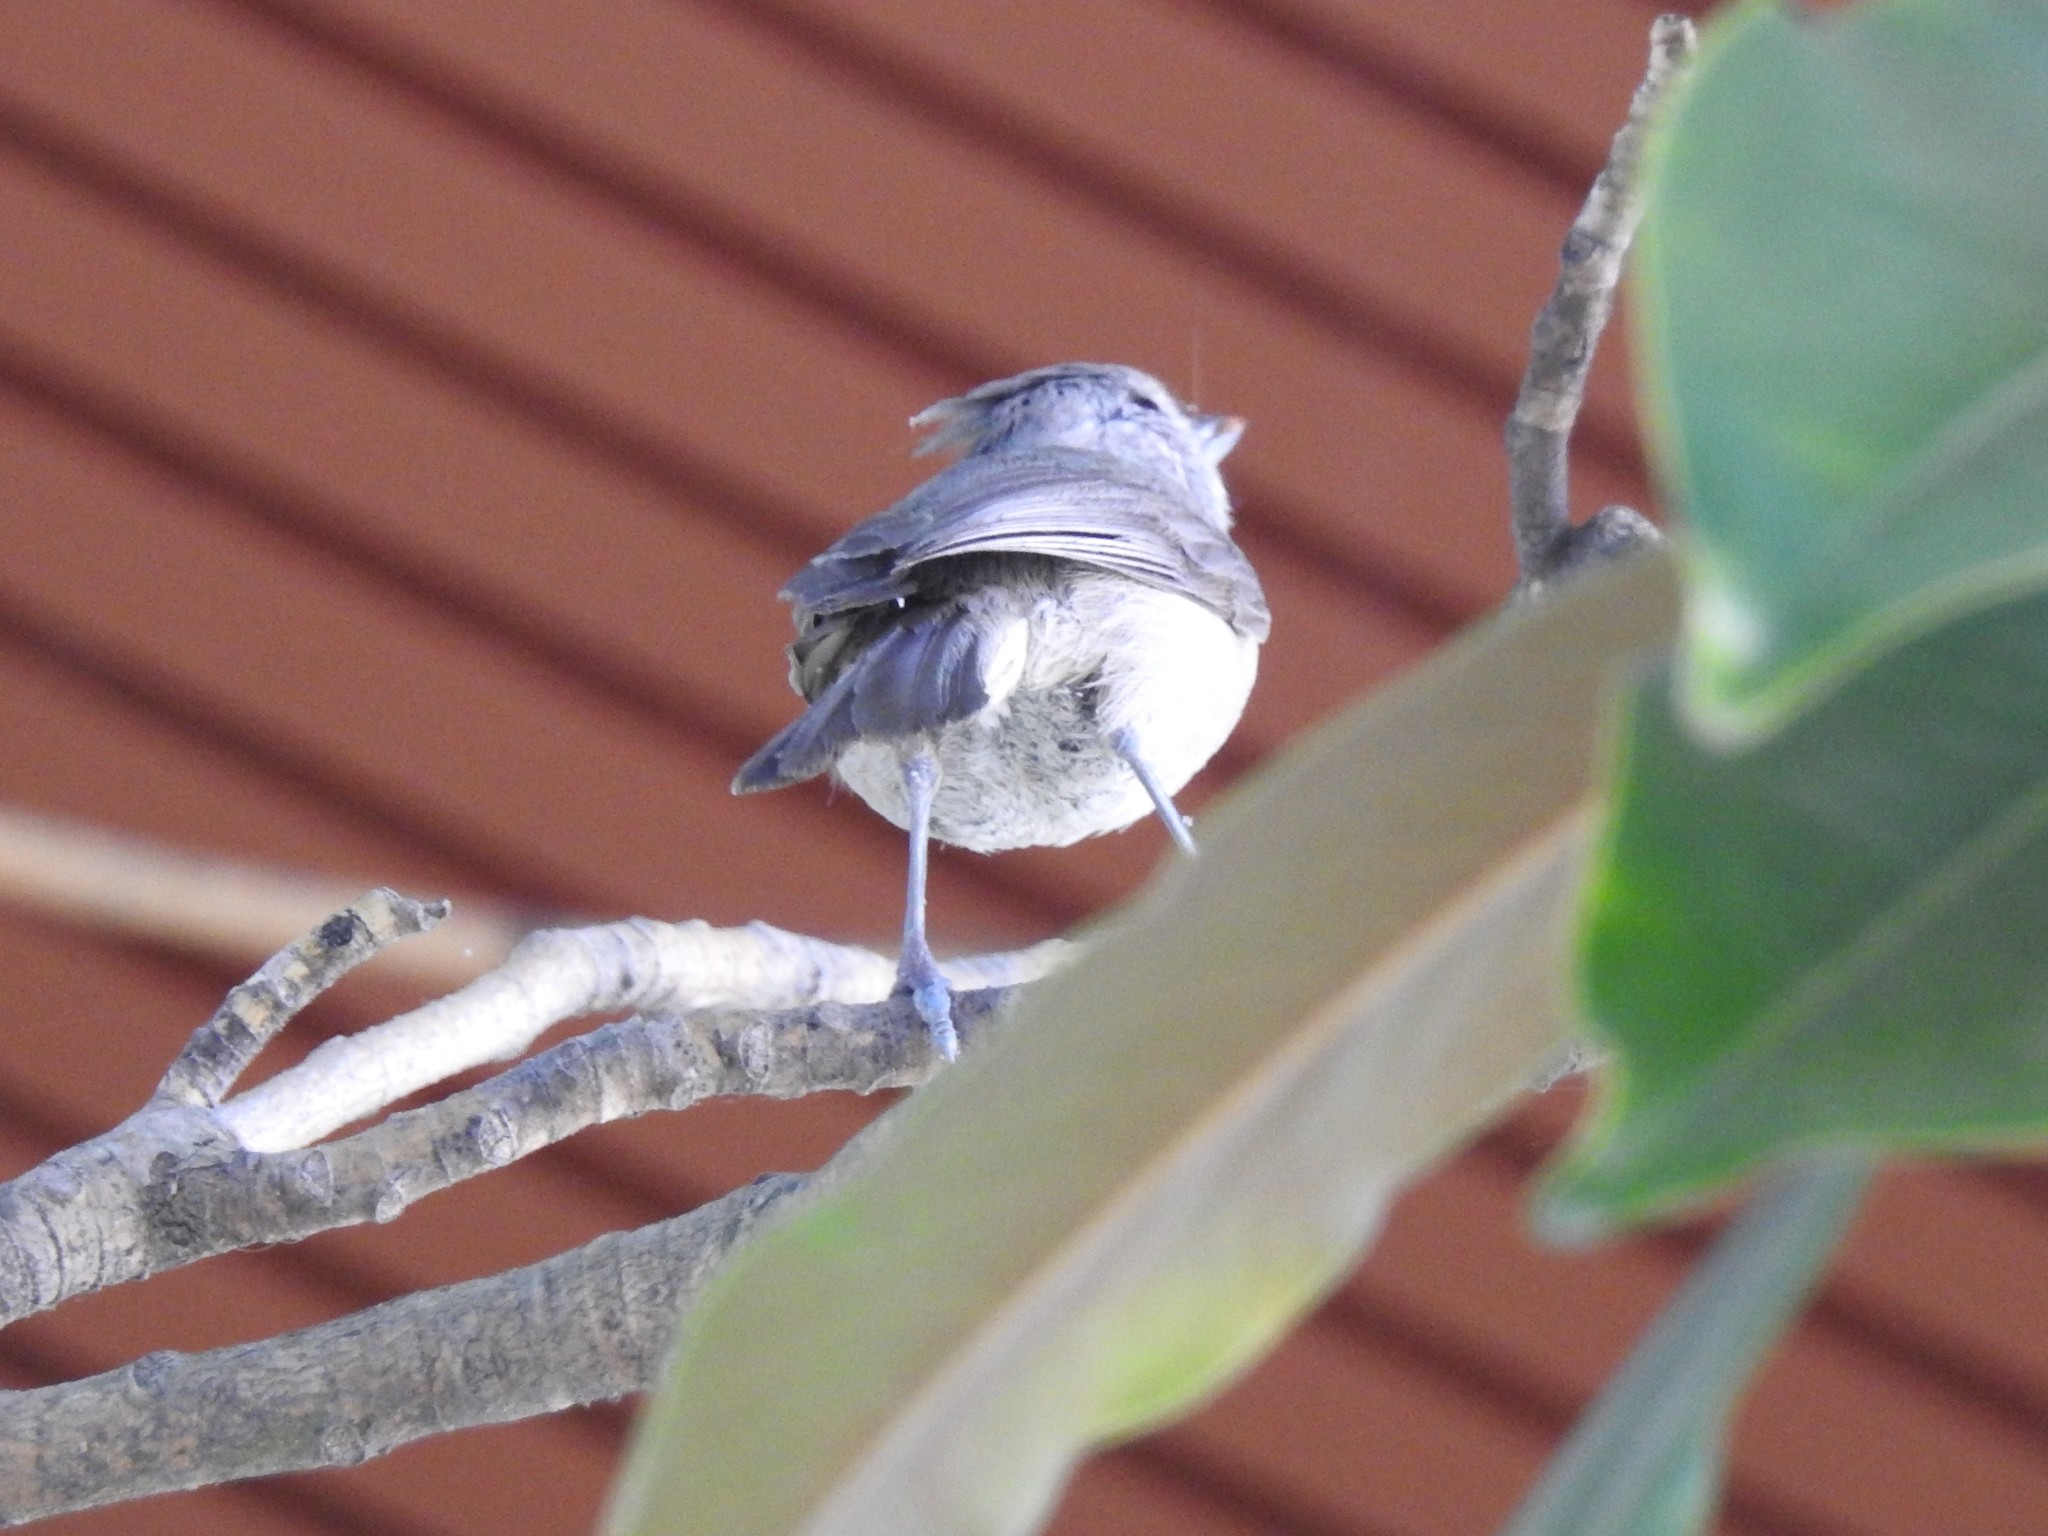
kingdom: Animalia
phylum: Chordata
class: Aves
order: Passeriformes
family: Paridae
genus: Baeolophus
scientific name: Baeolophus inornatus
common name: Oak titmouse
